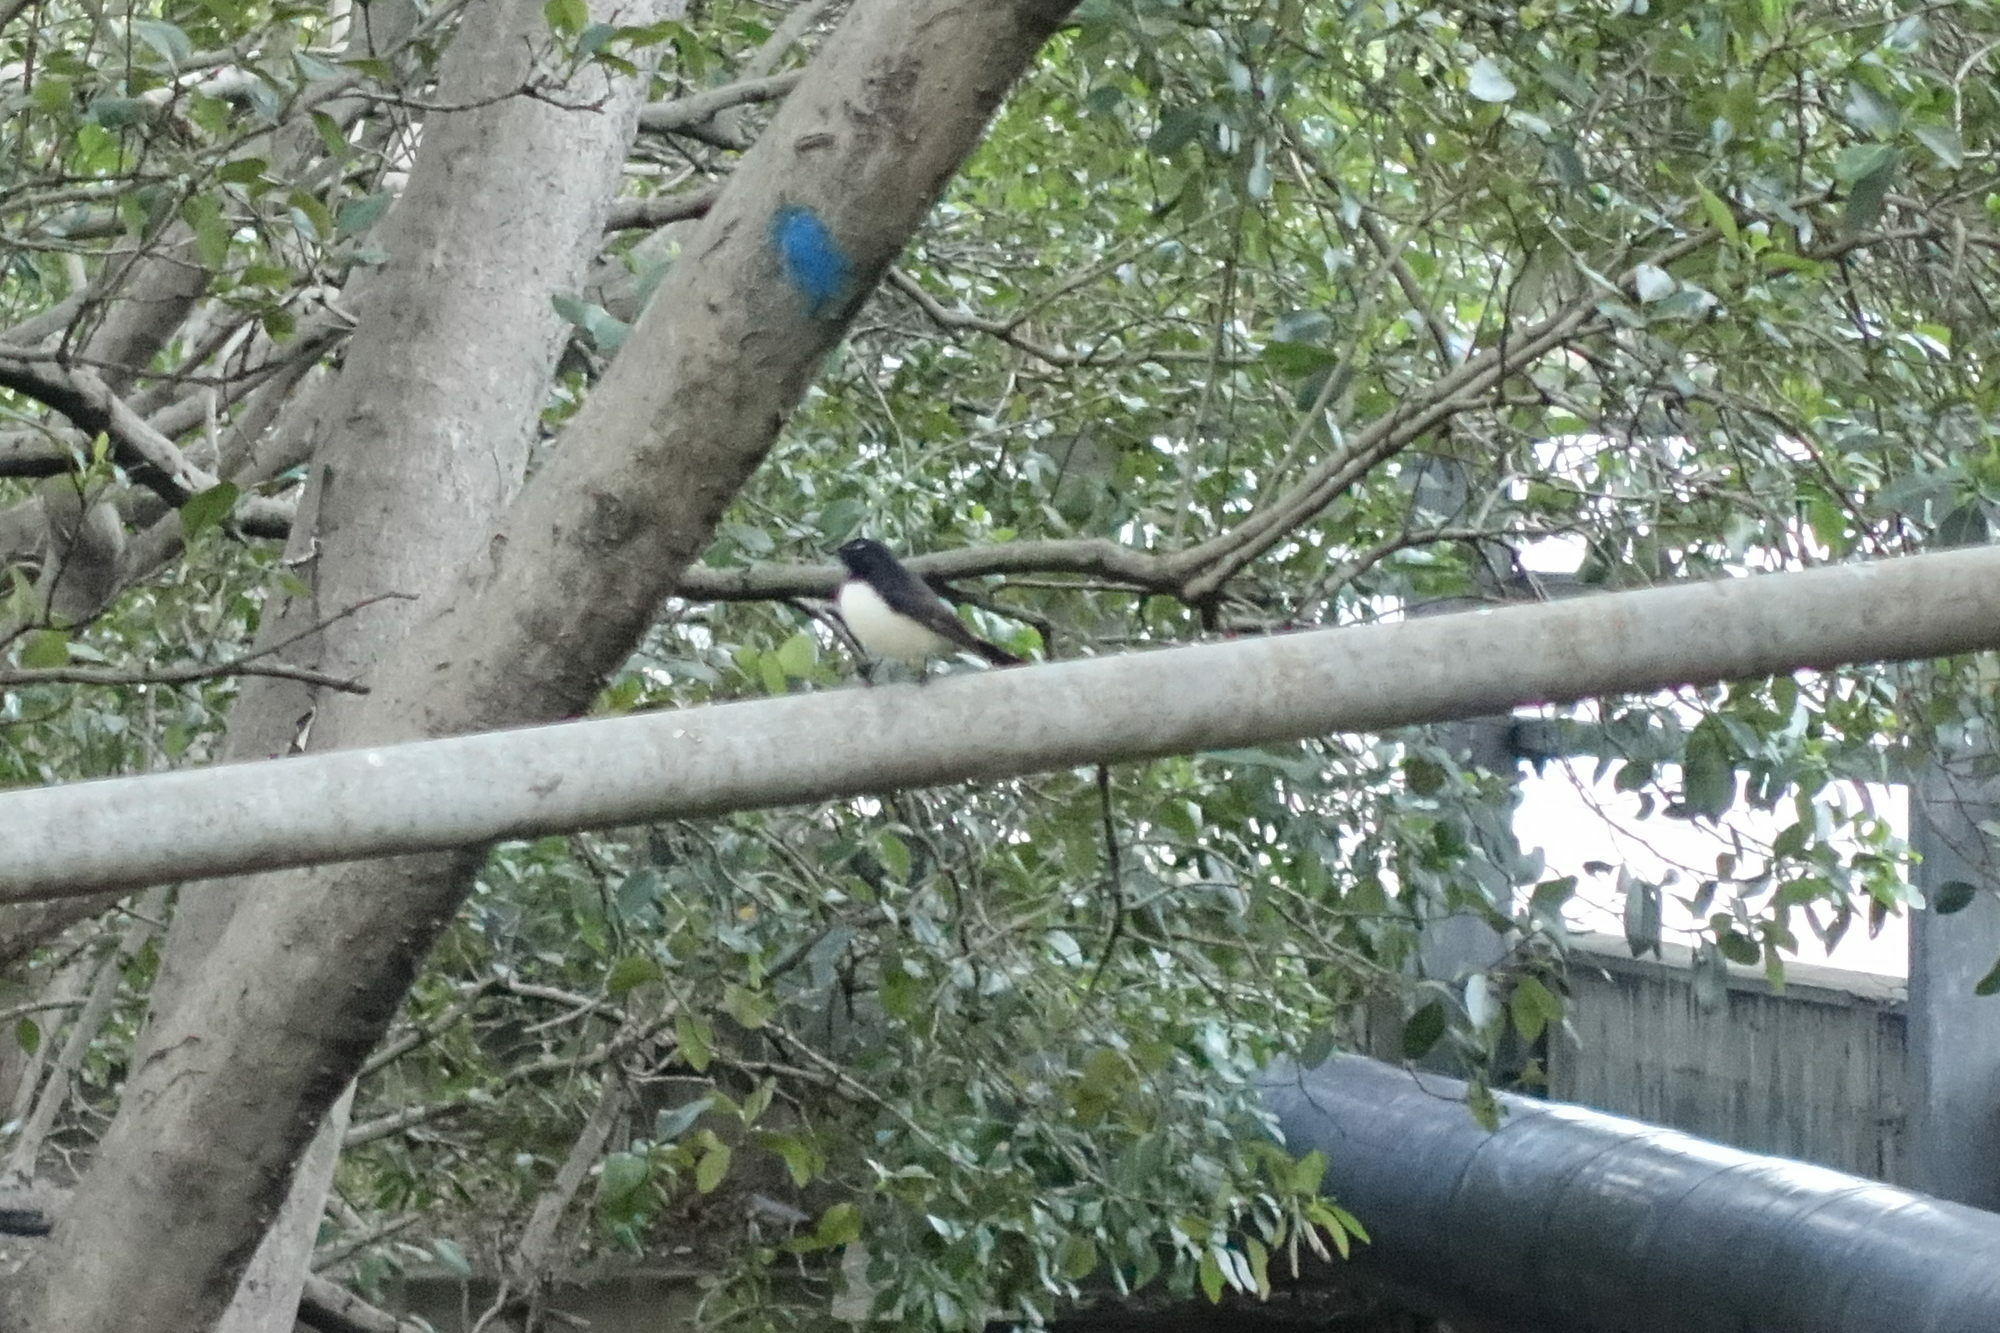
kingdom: Animalia
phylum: Chordata
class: Aves
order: Passeriformes
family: Rhipiduridae
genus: Rhipidura
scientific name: Rhipidura leucophrys
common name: Willie wagtail
